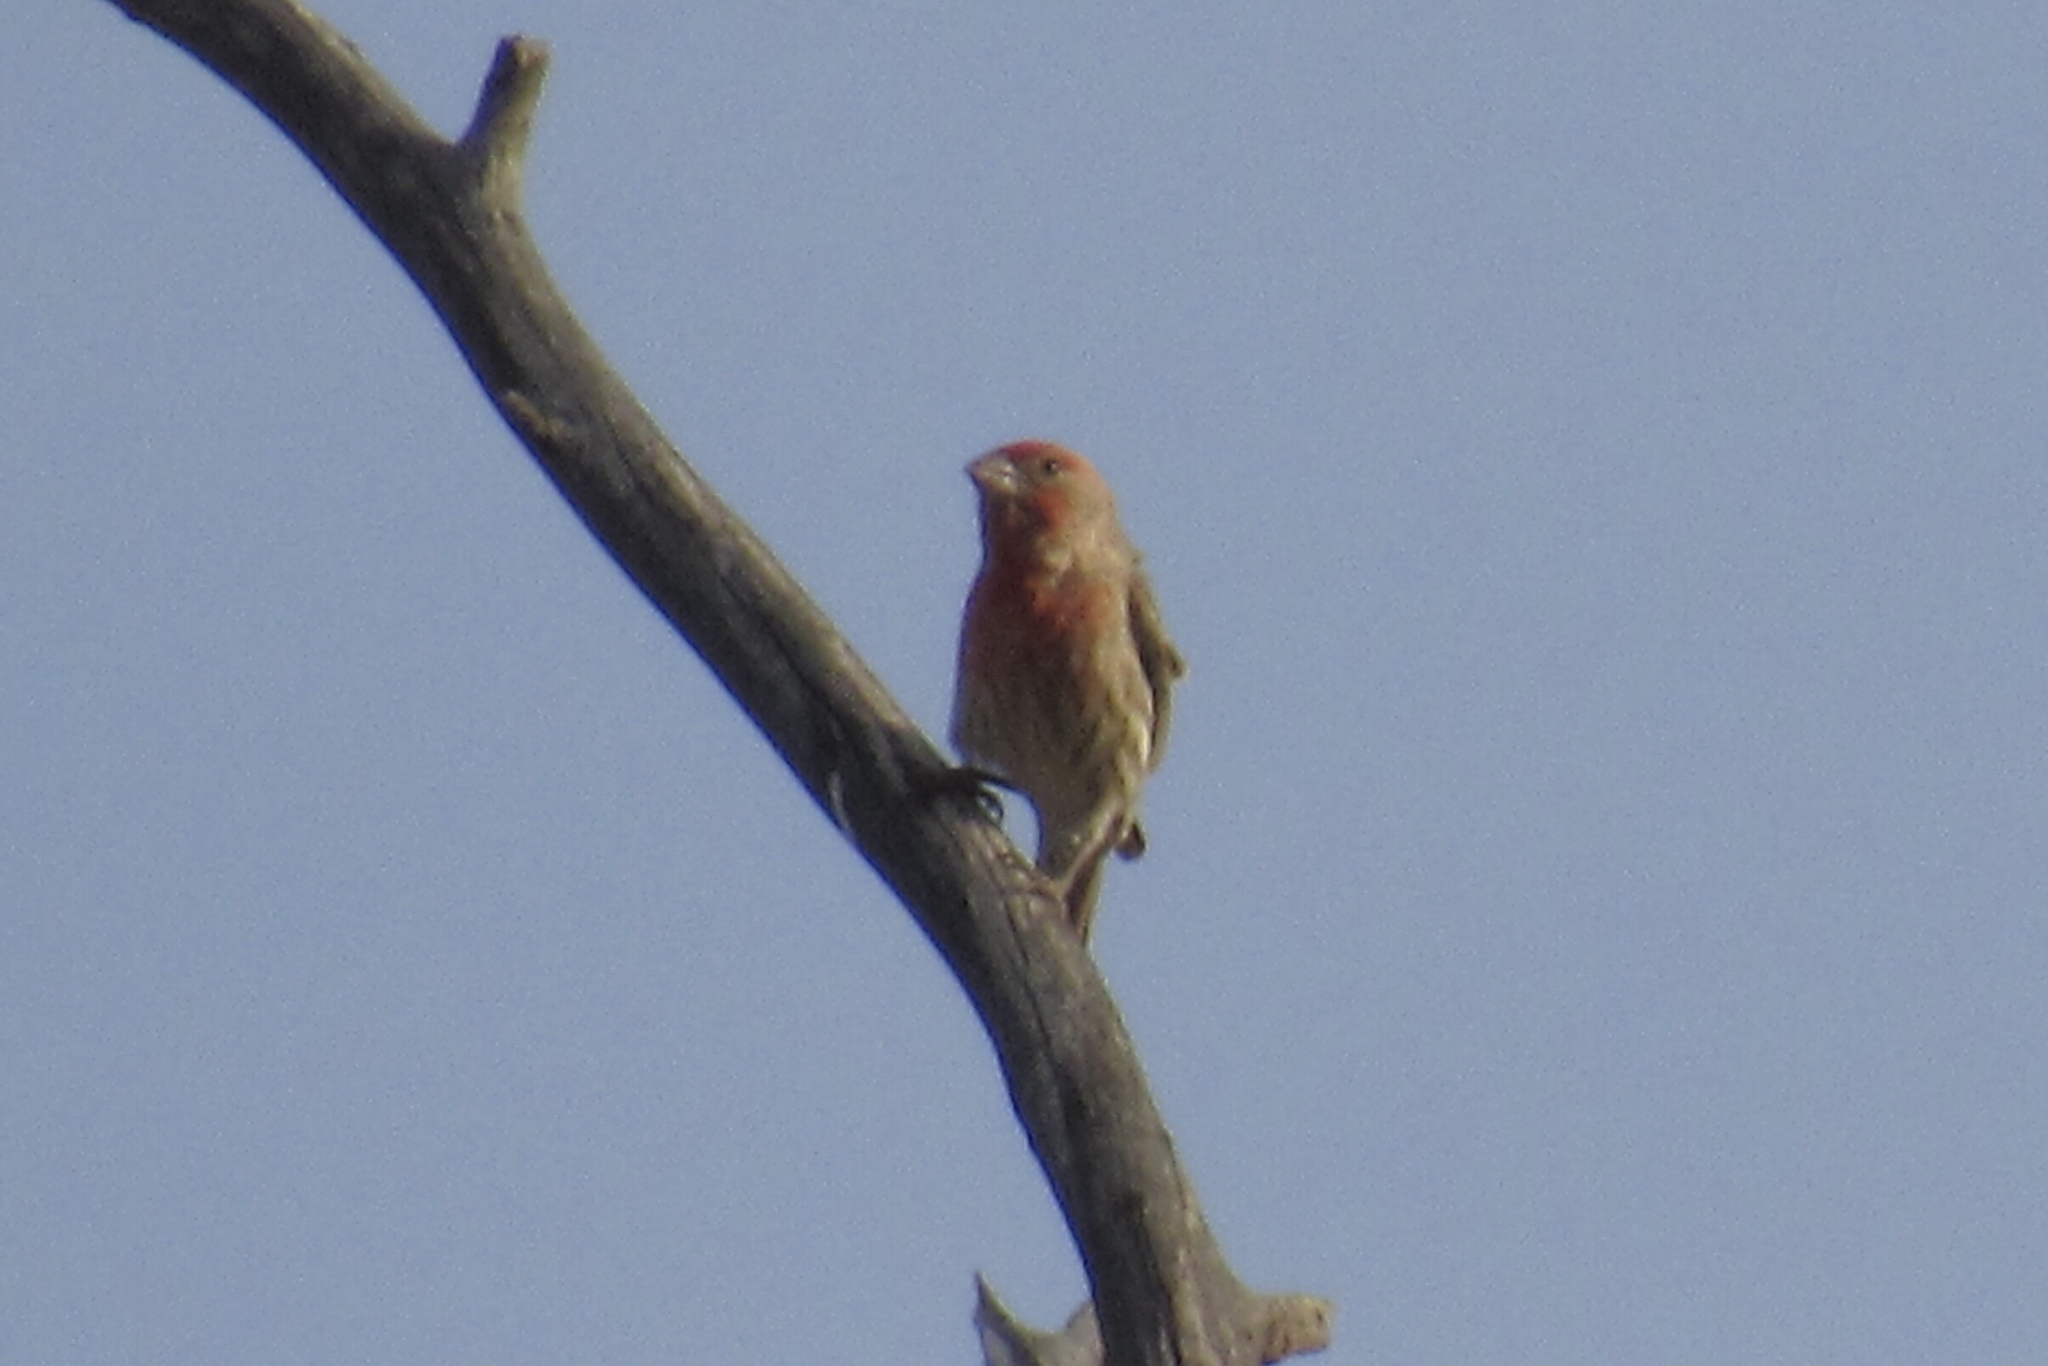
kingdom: Animalia
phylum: Chordata
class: Aves
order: Passeriformes
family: Fringillidae
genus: Haemorhous
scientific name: Haemorhous mexicanus
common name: House finch
